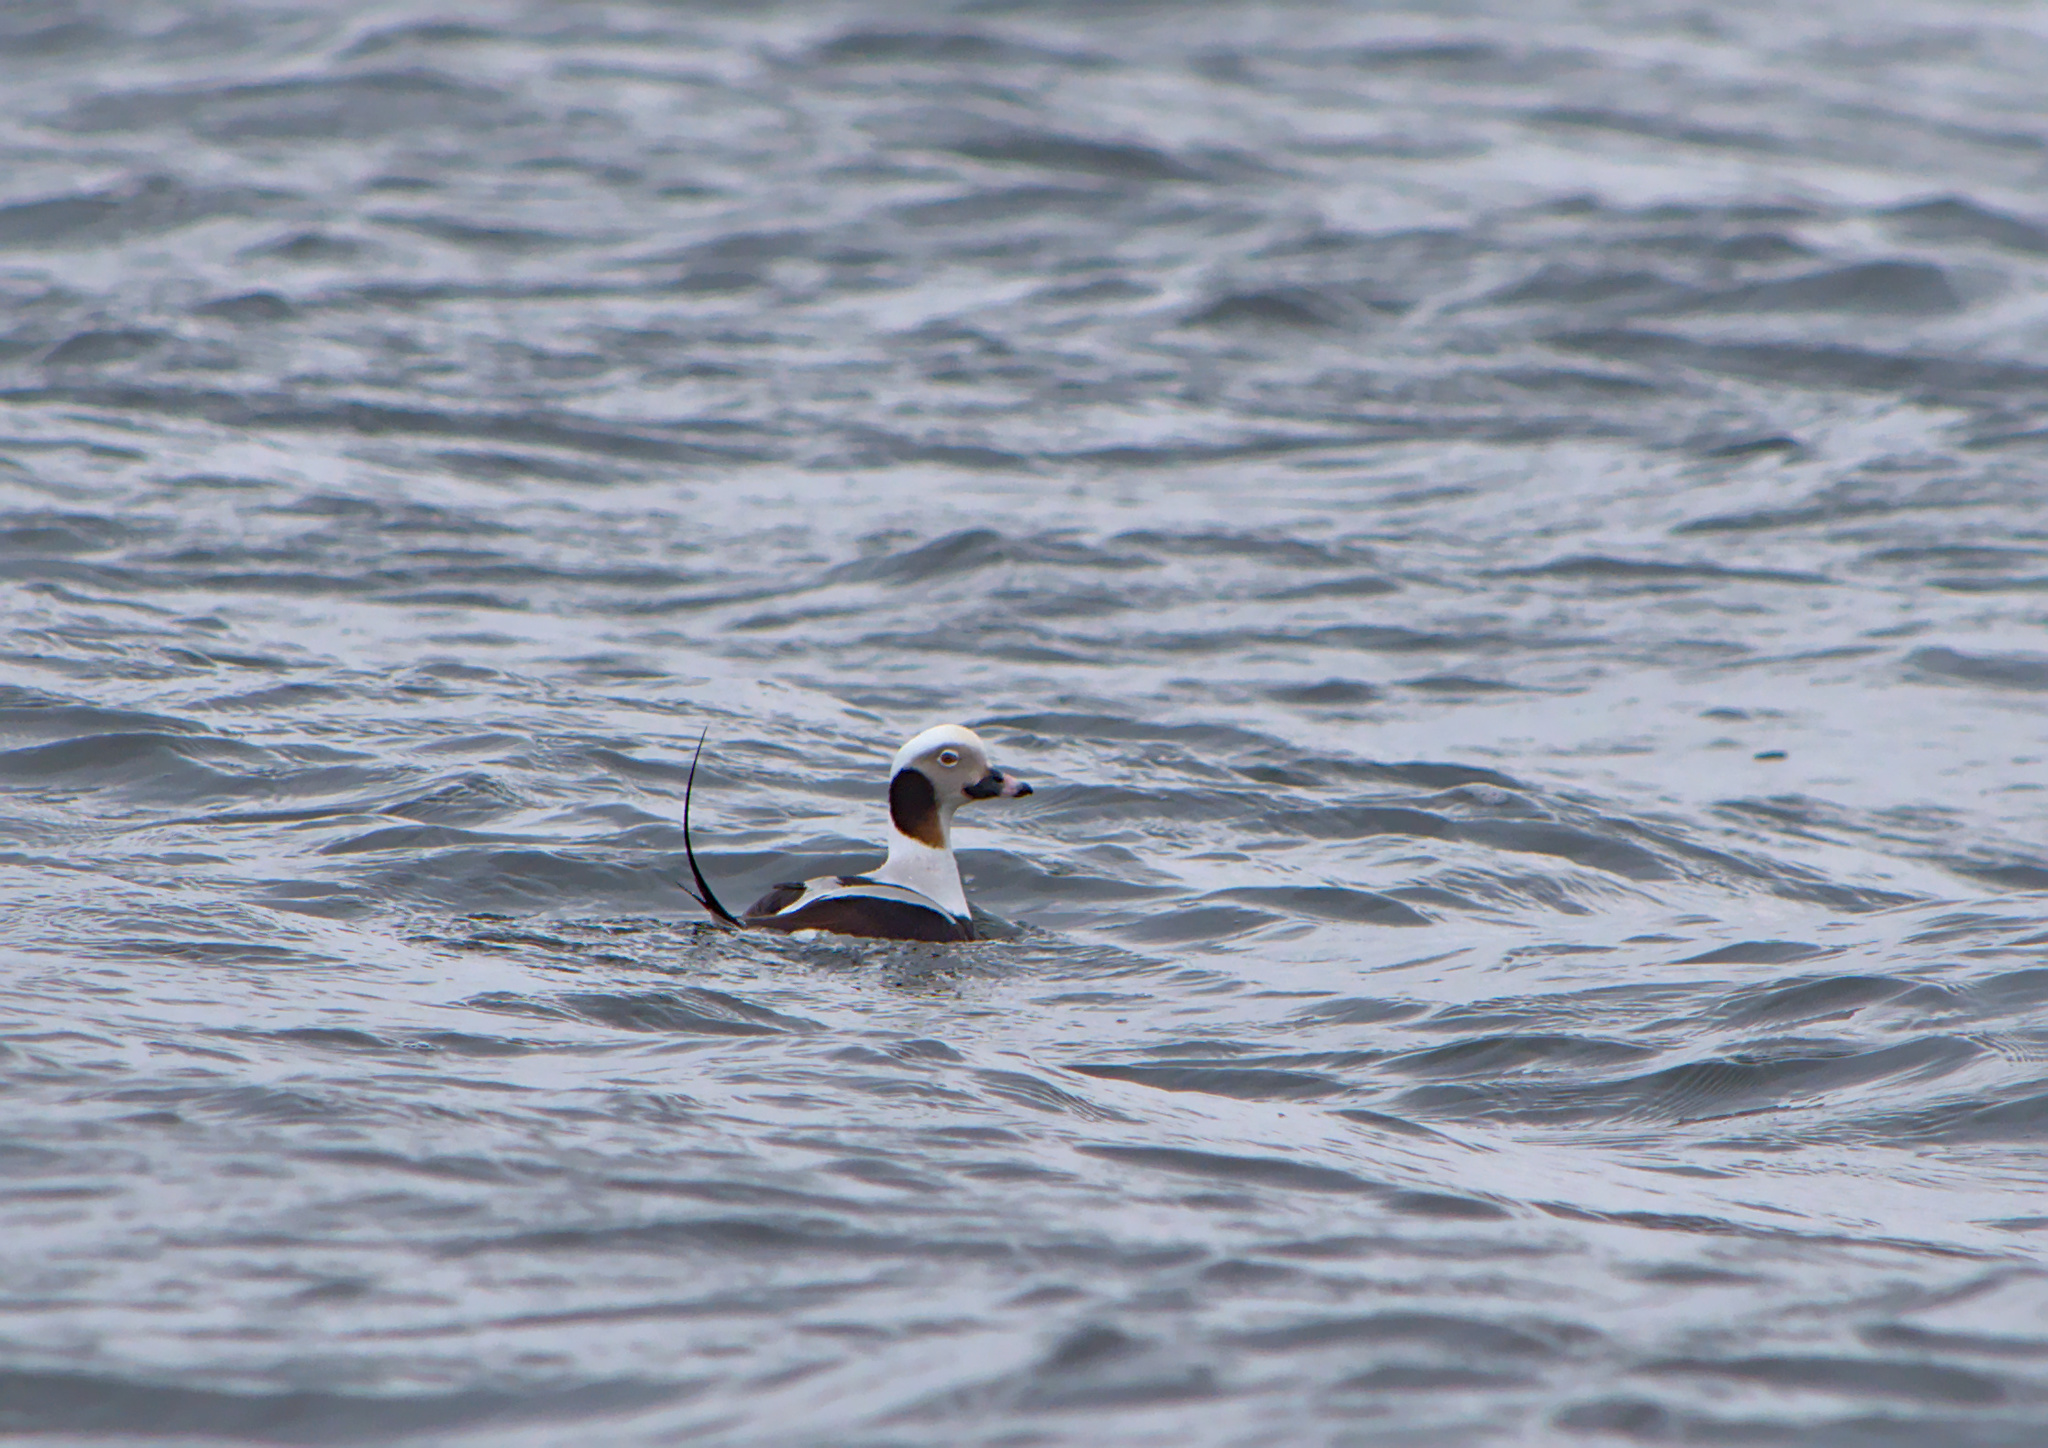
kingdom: Animalia
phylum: Chordata
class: Aves
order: Anseriformes
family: Anatidae
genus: Clangula
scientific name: Clangula hyemalis
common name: Long-tailed duck
